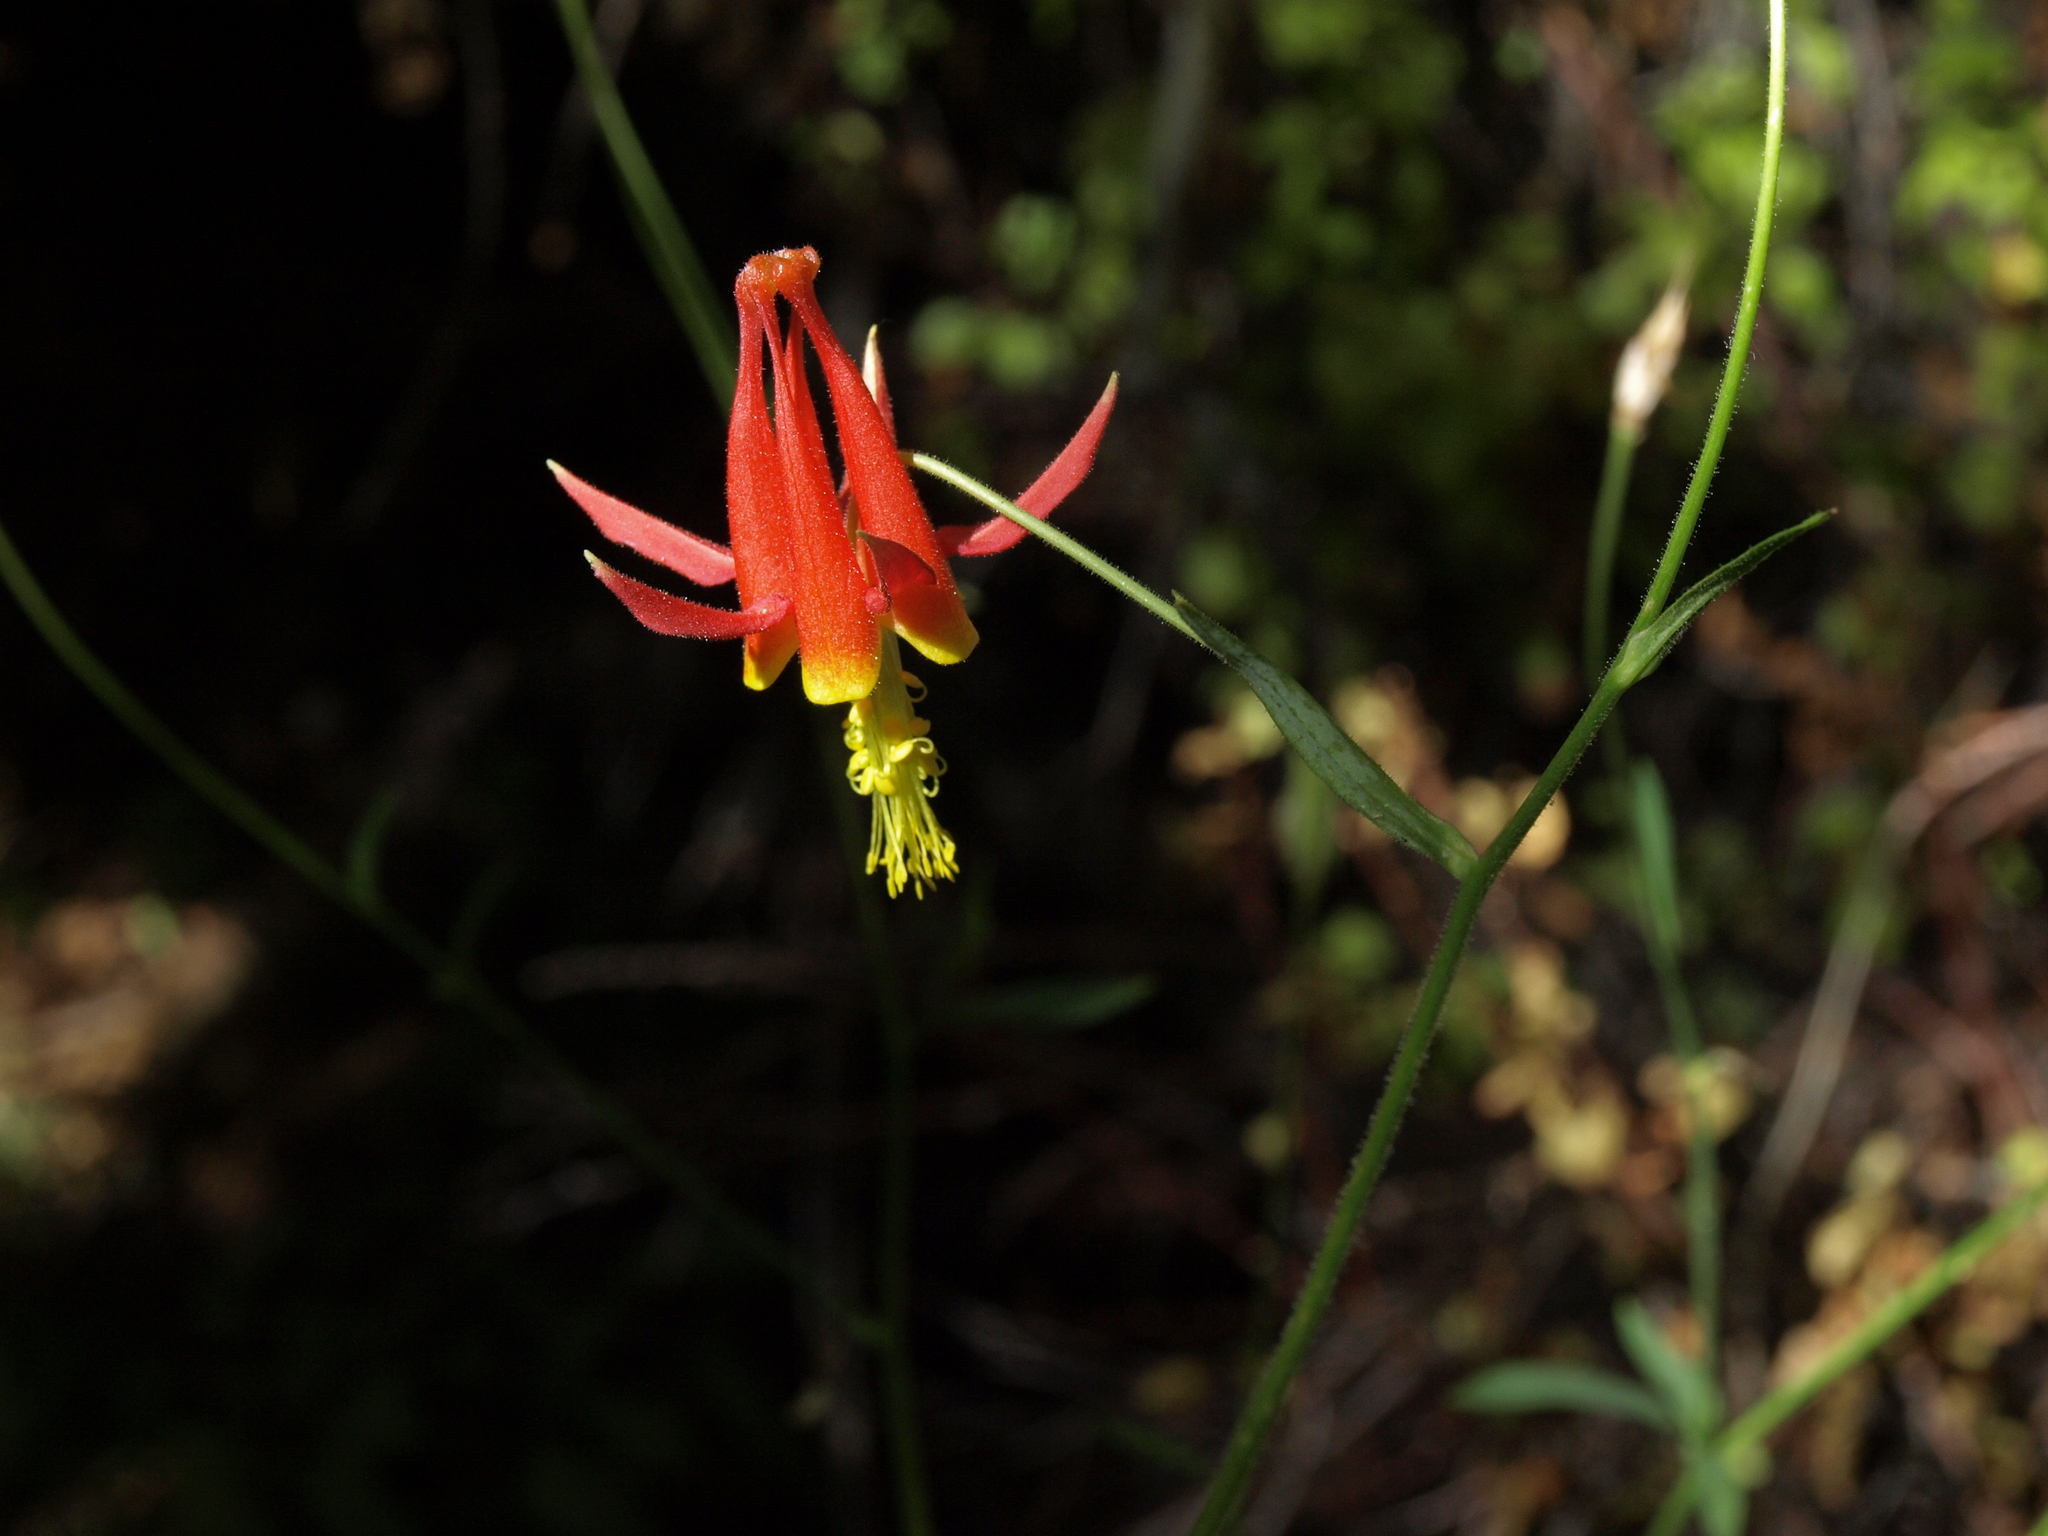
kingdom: Plantae
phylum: Tracheophyta
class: Magnoliopsida
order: Ranunculales
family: Ranunculaceae
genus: Aquilegia
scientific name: Aquilegia formosa
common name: Sitka columbine
